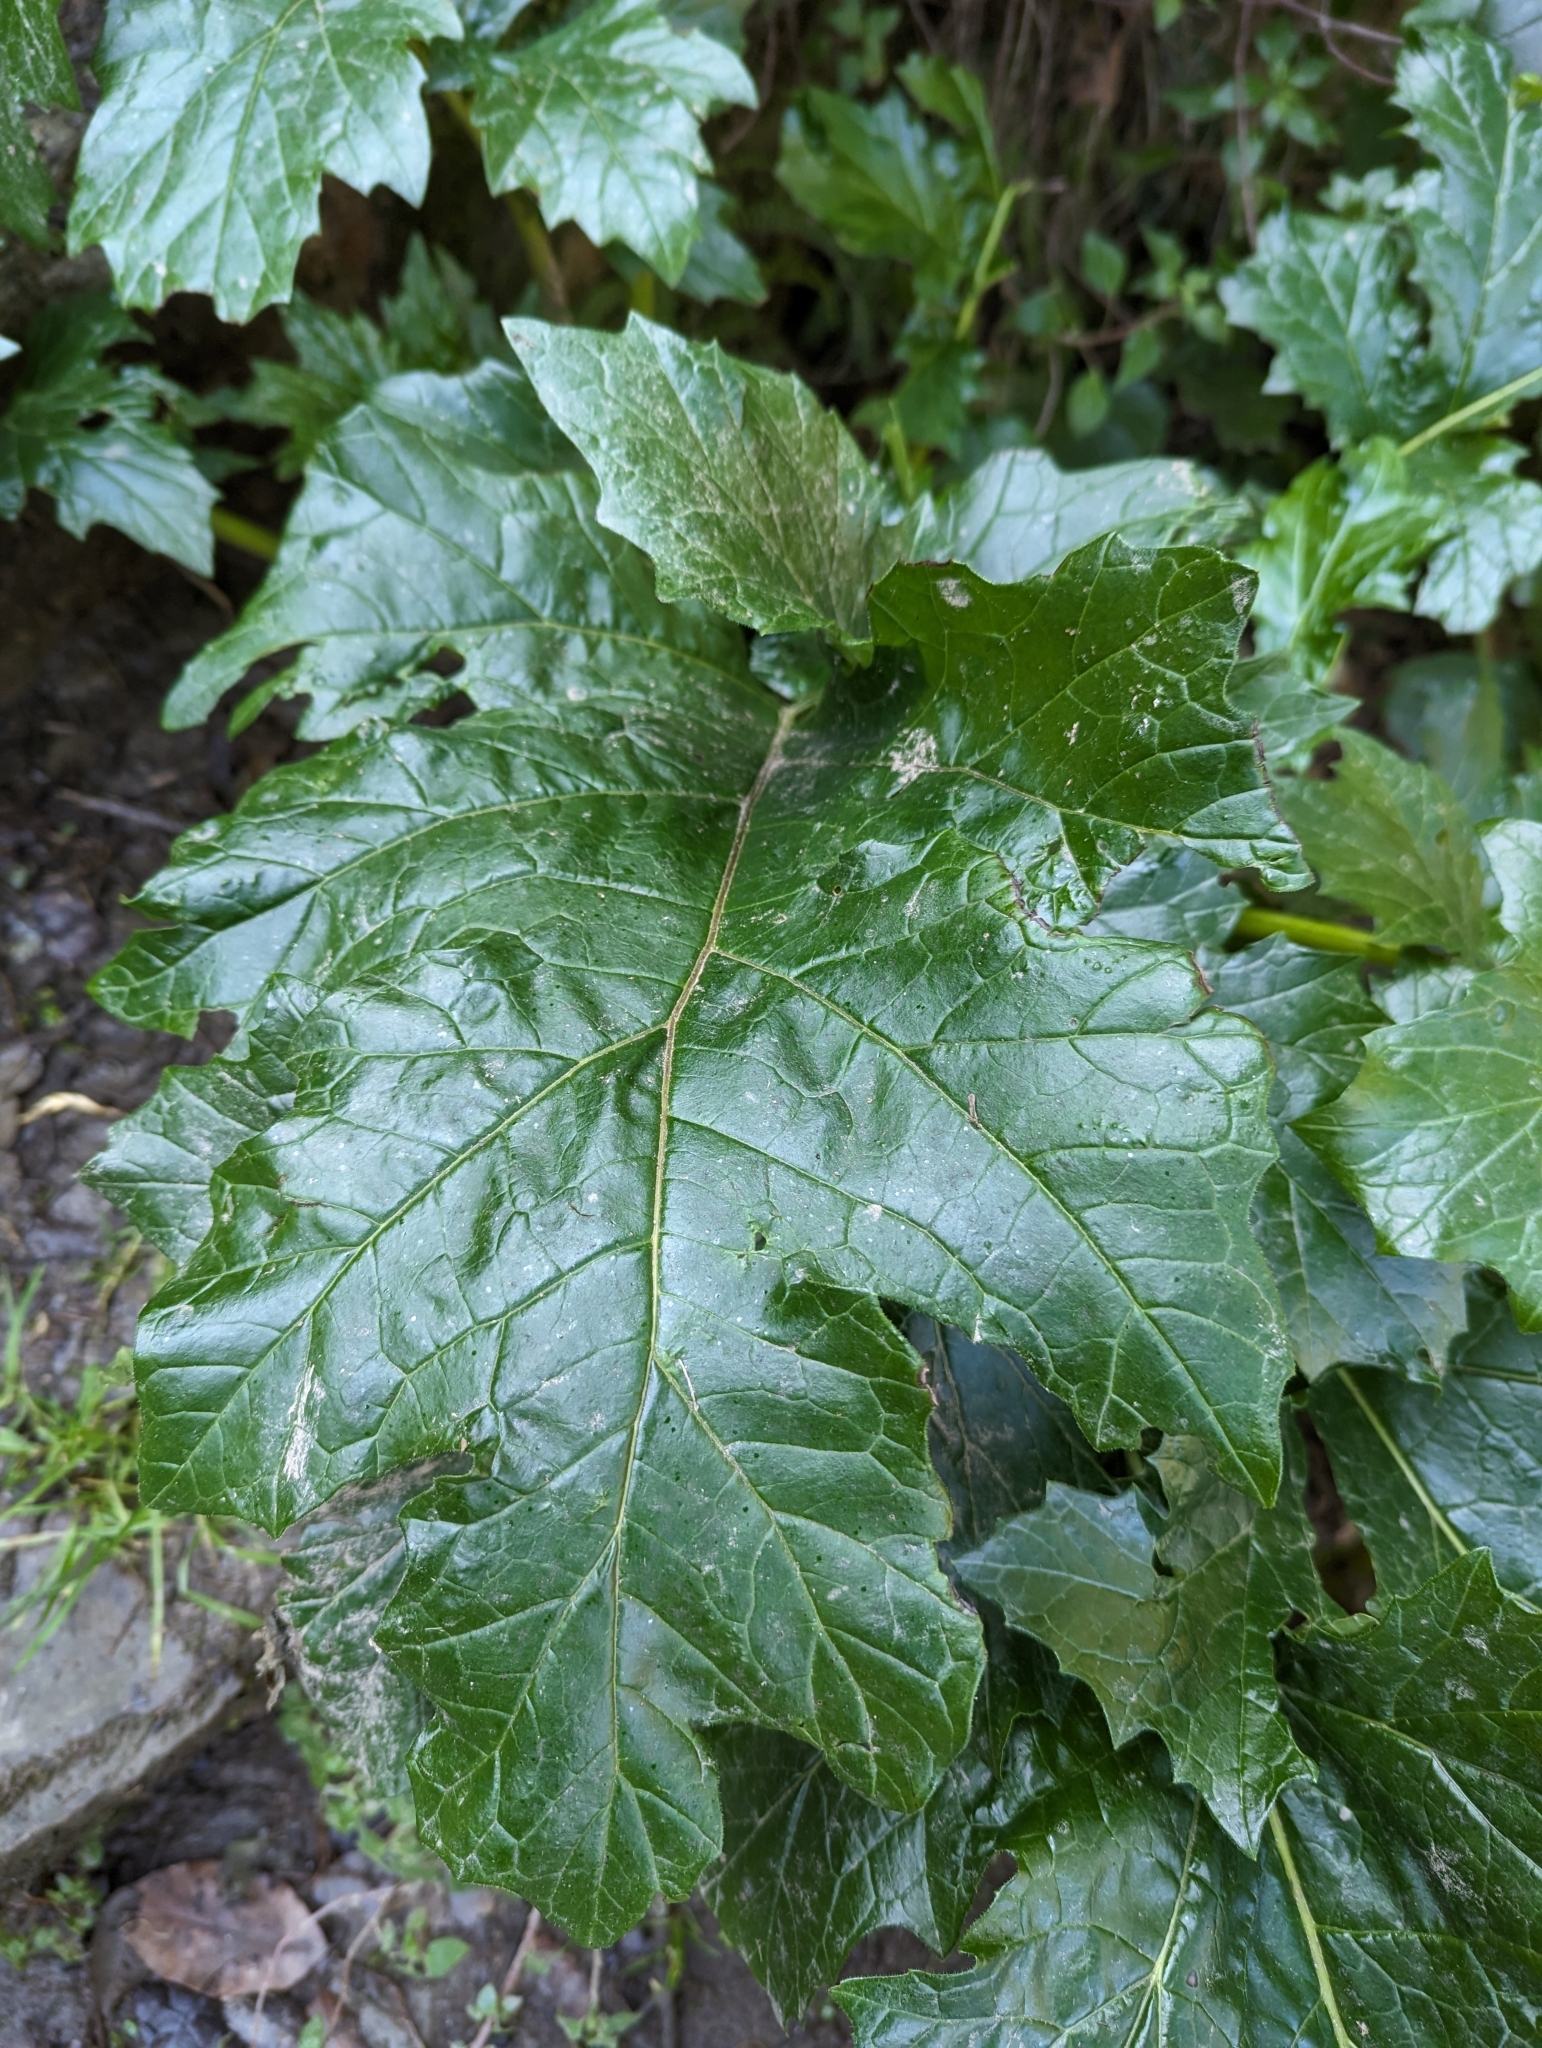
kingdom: Plantae
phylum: Tracheophyta
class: Magnoliopsida
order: Lamiales
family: Acanthaceae
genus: Acanthus
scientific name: Acanthus mollis
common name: Bear's-breech
